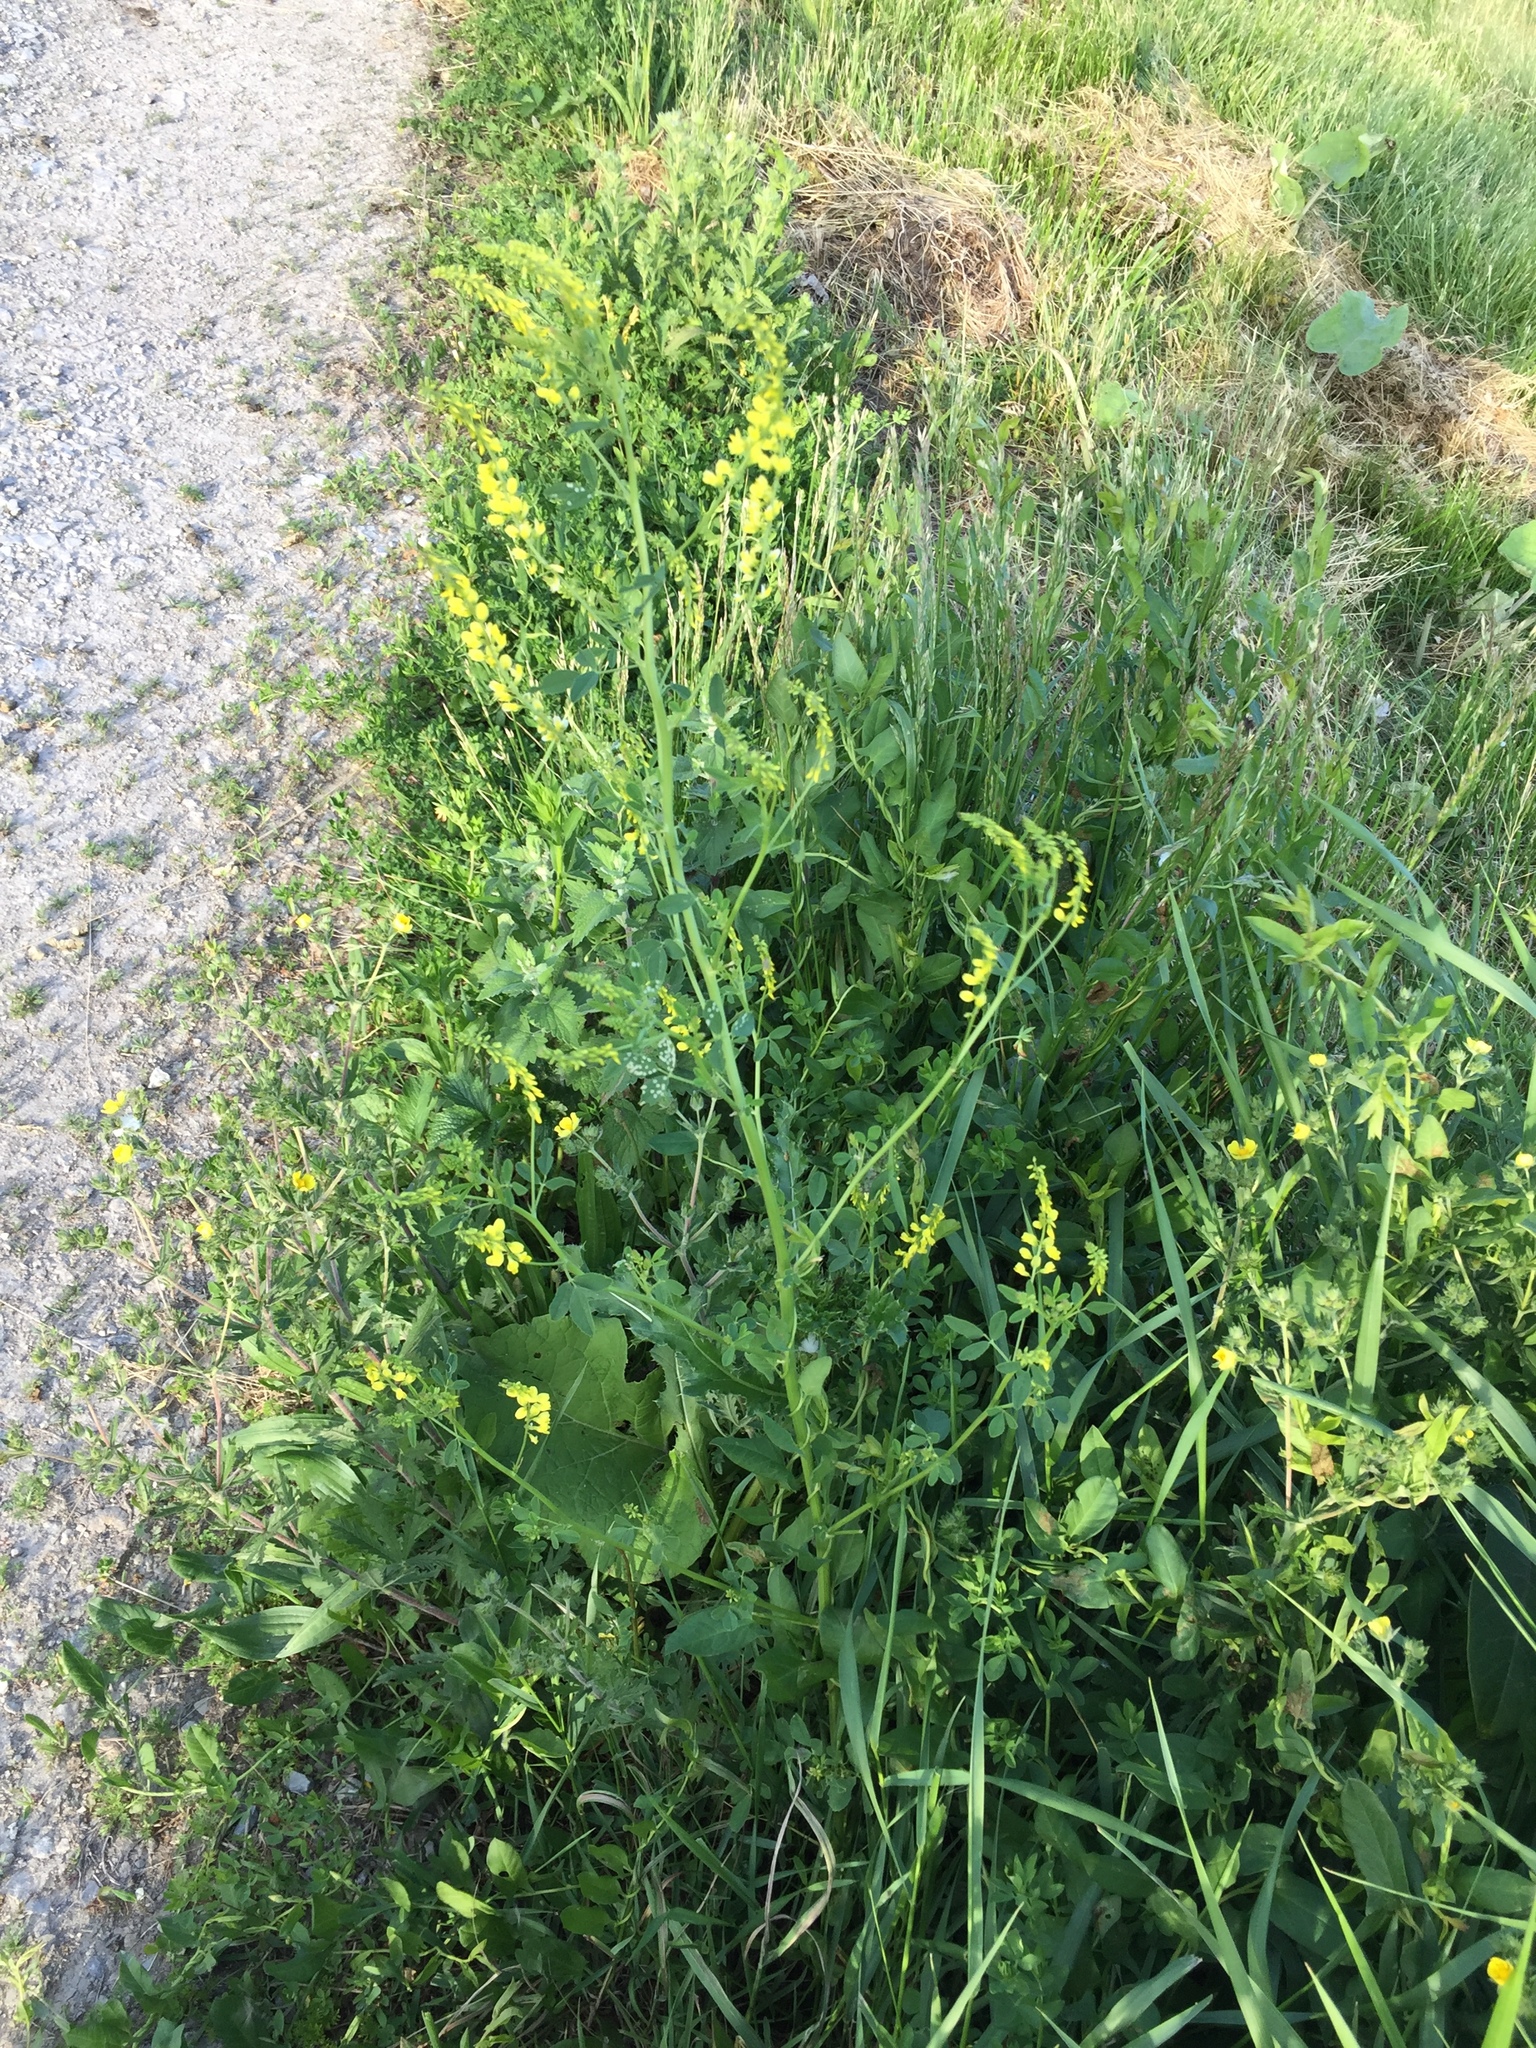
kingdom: Plantae
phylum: Tracheophyta
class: Magnoliopsida
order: Fabales
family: Fabaceae
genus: Melilotus
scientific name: Melilotus officinalis
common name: Sweetclover
